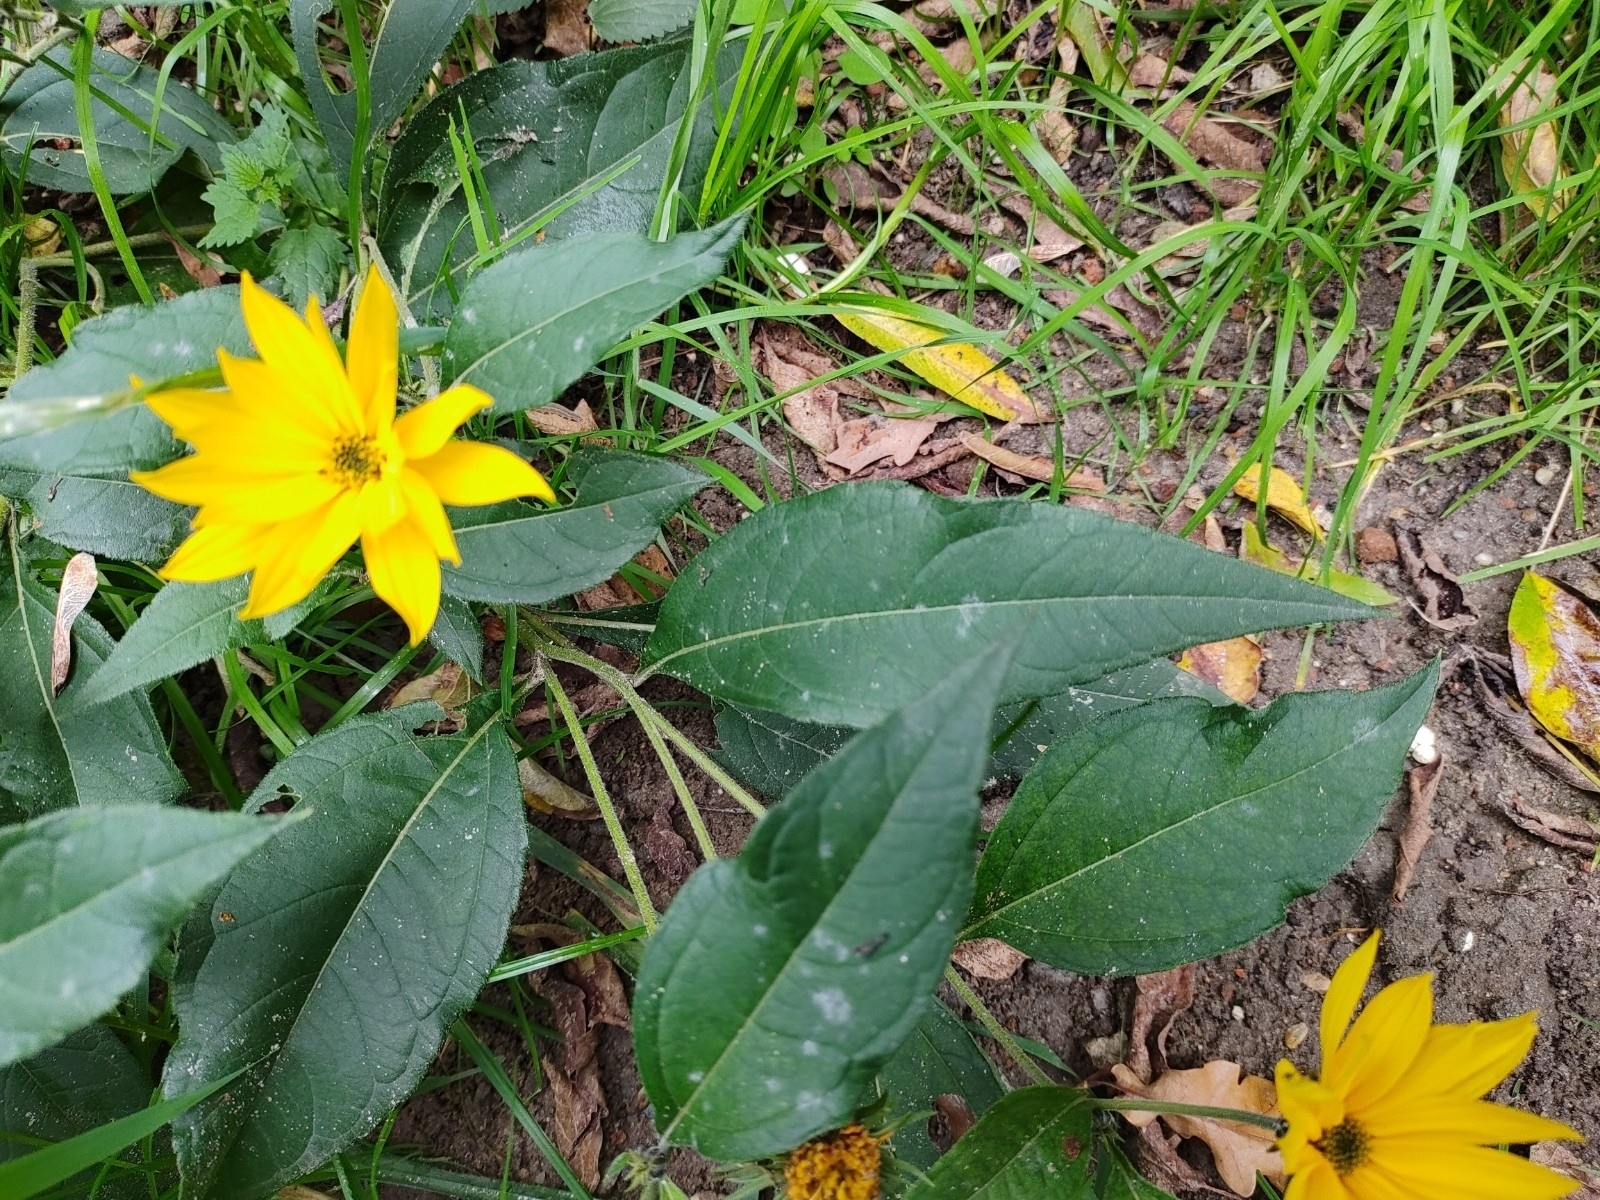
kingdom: Plantae
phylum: Tracheophyta
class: Magnoliopsida
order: Asterales
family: Asteraceae
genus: Helianthus
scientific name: Helianthus tuberosus
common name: Jerusalem artichoke
